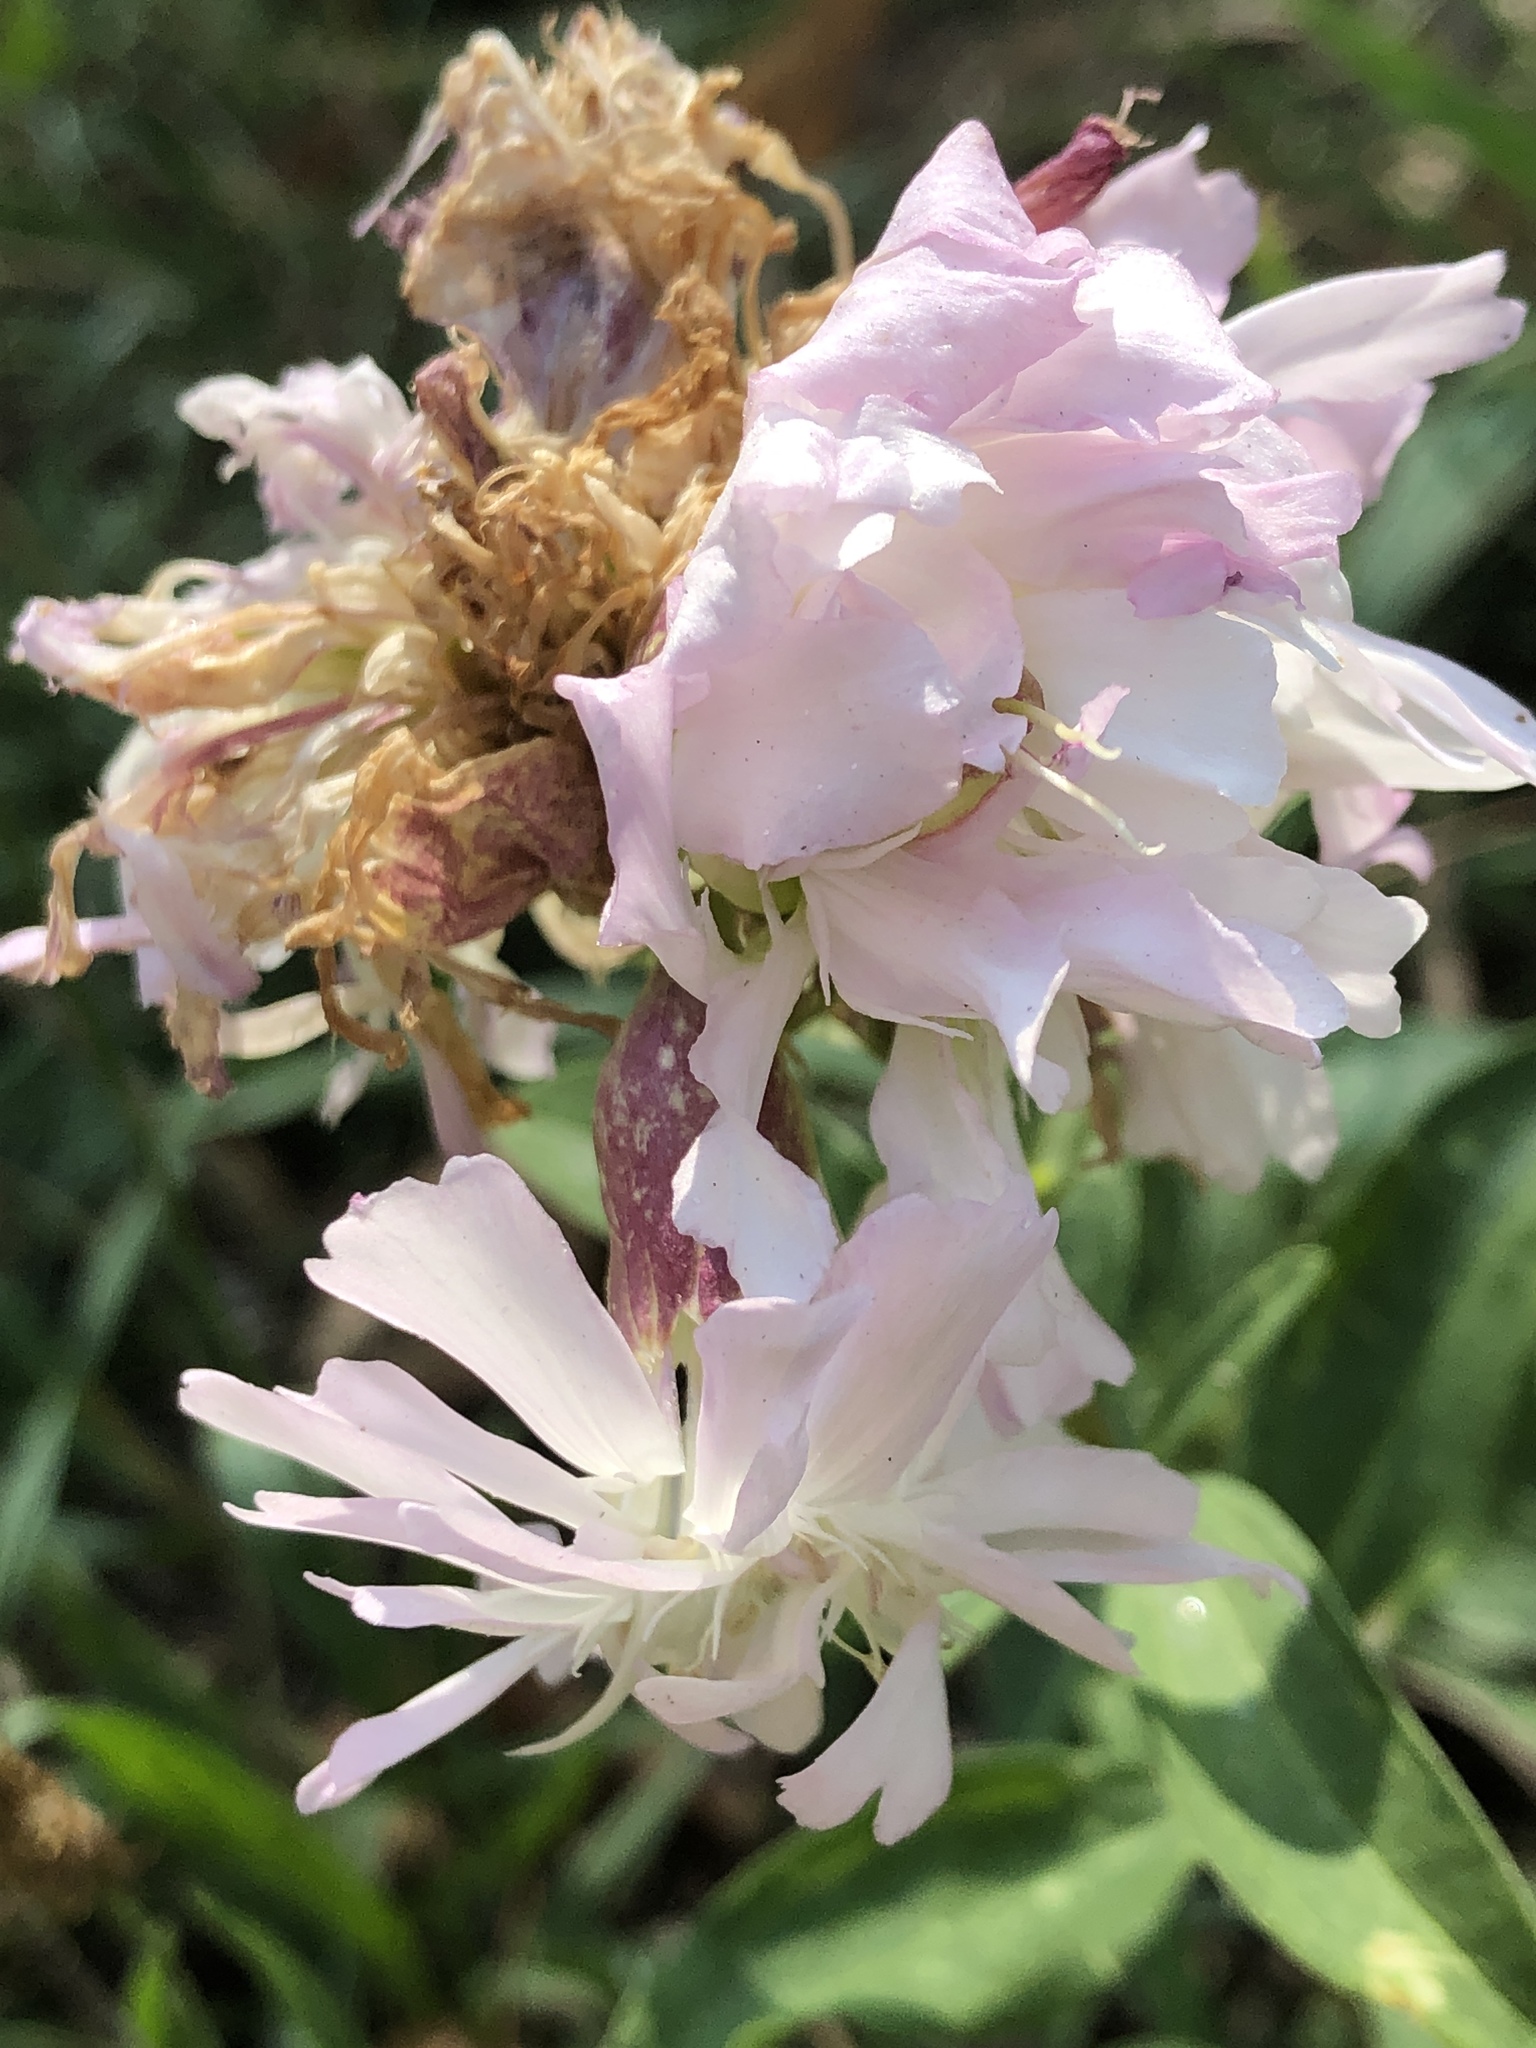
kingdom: Plantae
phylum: Tracheophyta
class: Magnoliopsida
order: Caryophyllales
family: Caryophyllaceae
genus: Saponaria
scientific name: Saponaria officinalis
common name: Soapwort
